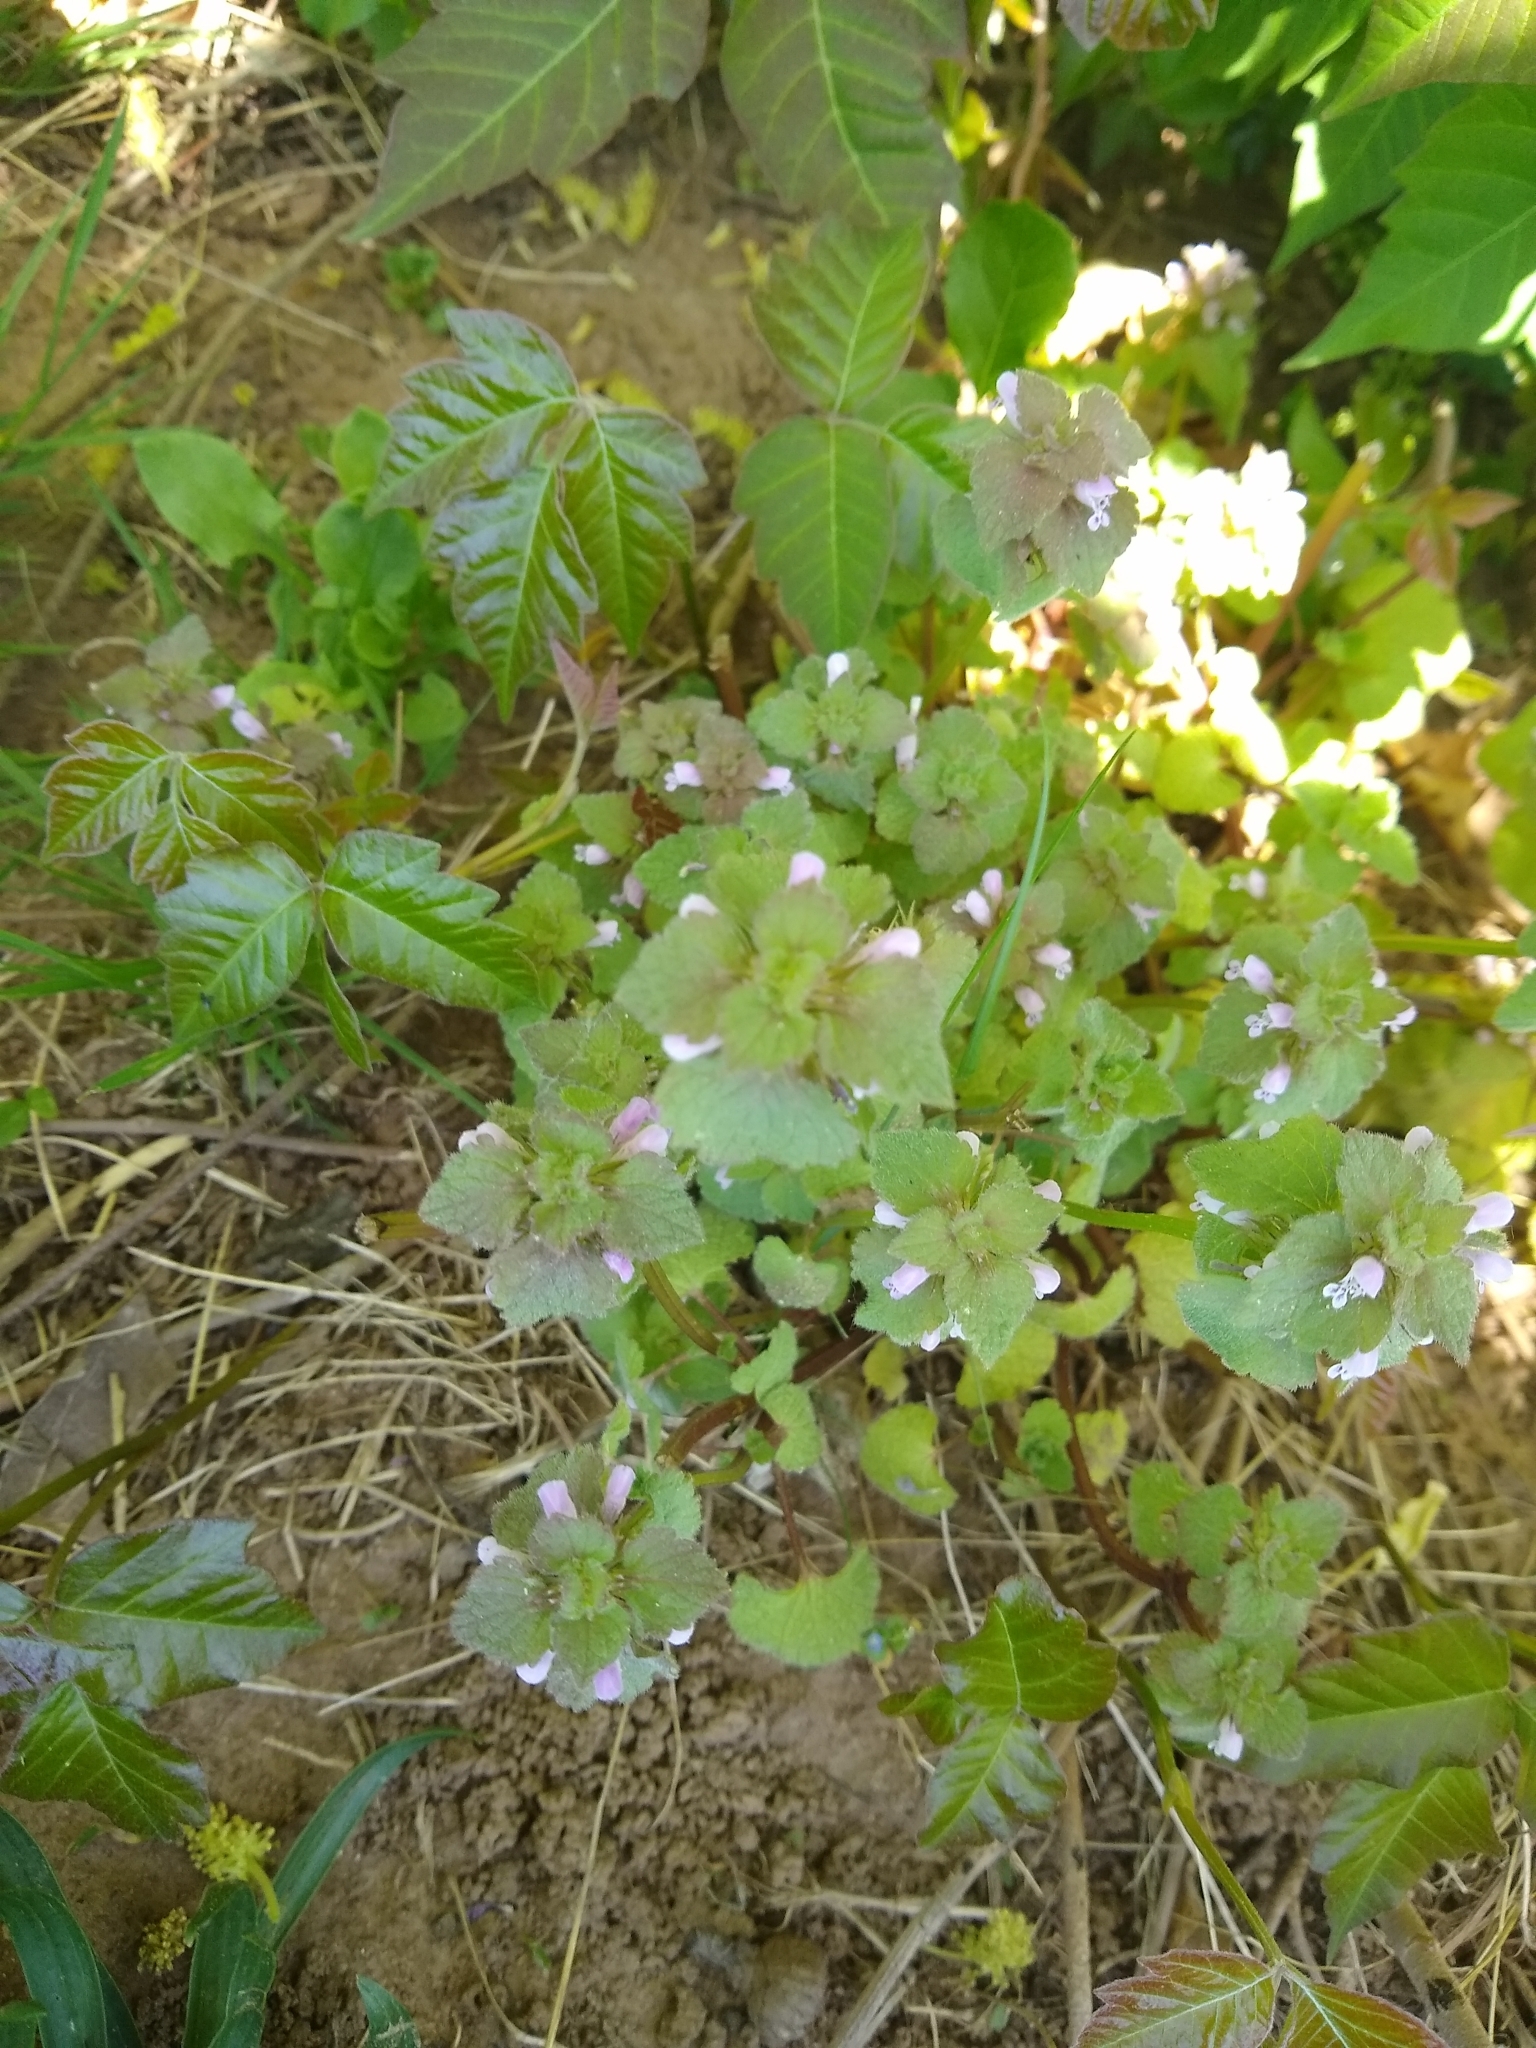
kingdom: Plantae
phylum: Tracheophyta
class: Magnoliopsida
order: Lamiales
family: Lamiaceae
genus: Lamium
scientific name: Lamium purpureum
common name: Red dead-nettle
